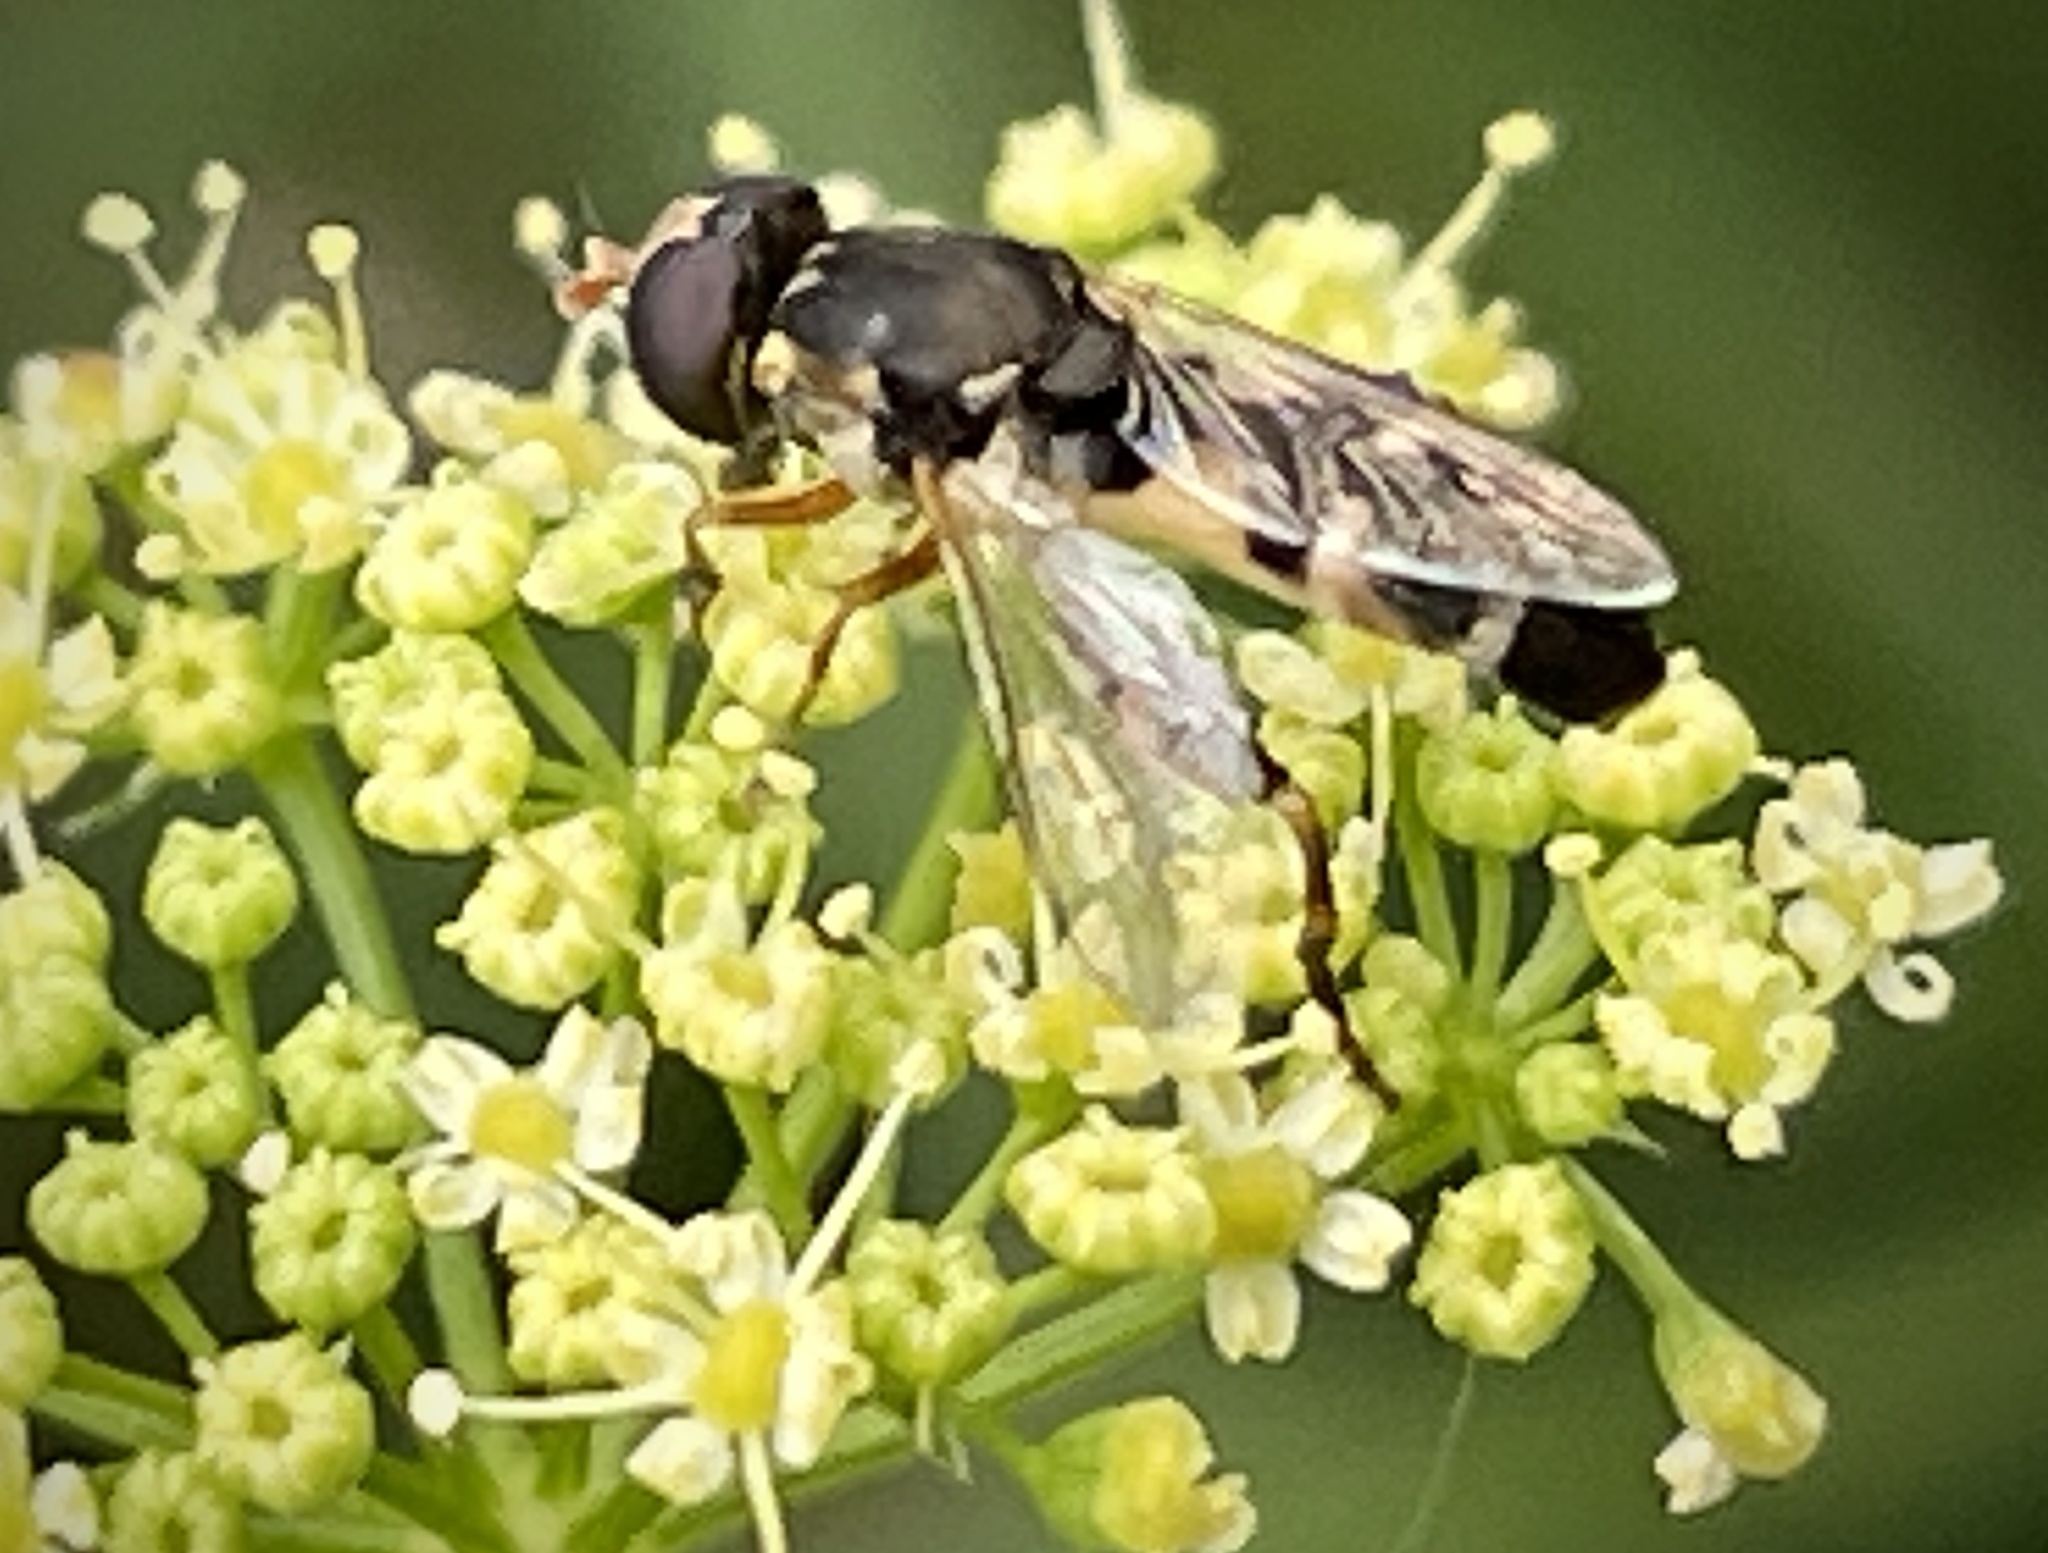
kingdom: Animalia
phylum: Arthropoda
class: Insecta
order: Diptera
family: Syrphidae
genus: Syritta
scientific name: Syritta pipiens
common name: Hover fly
